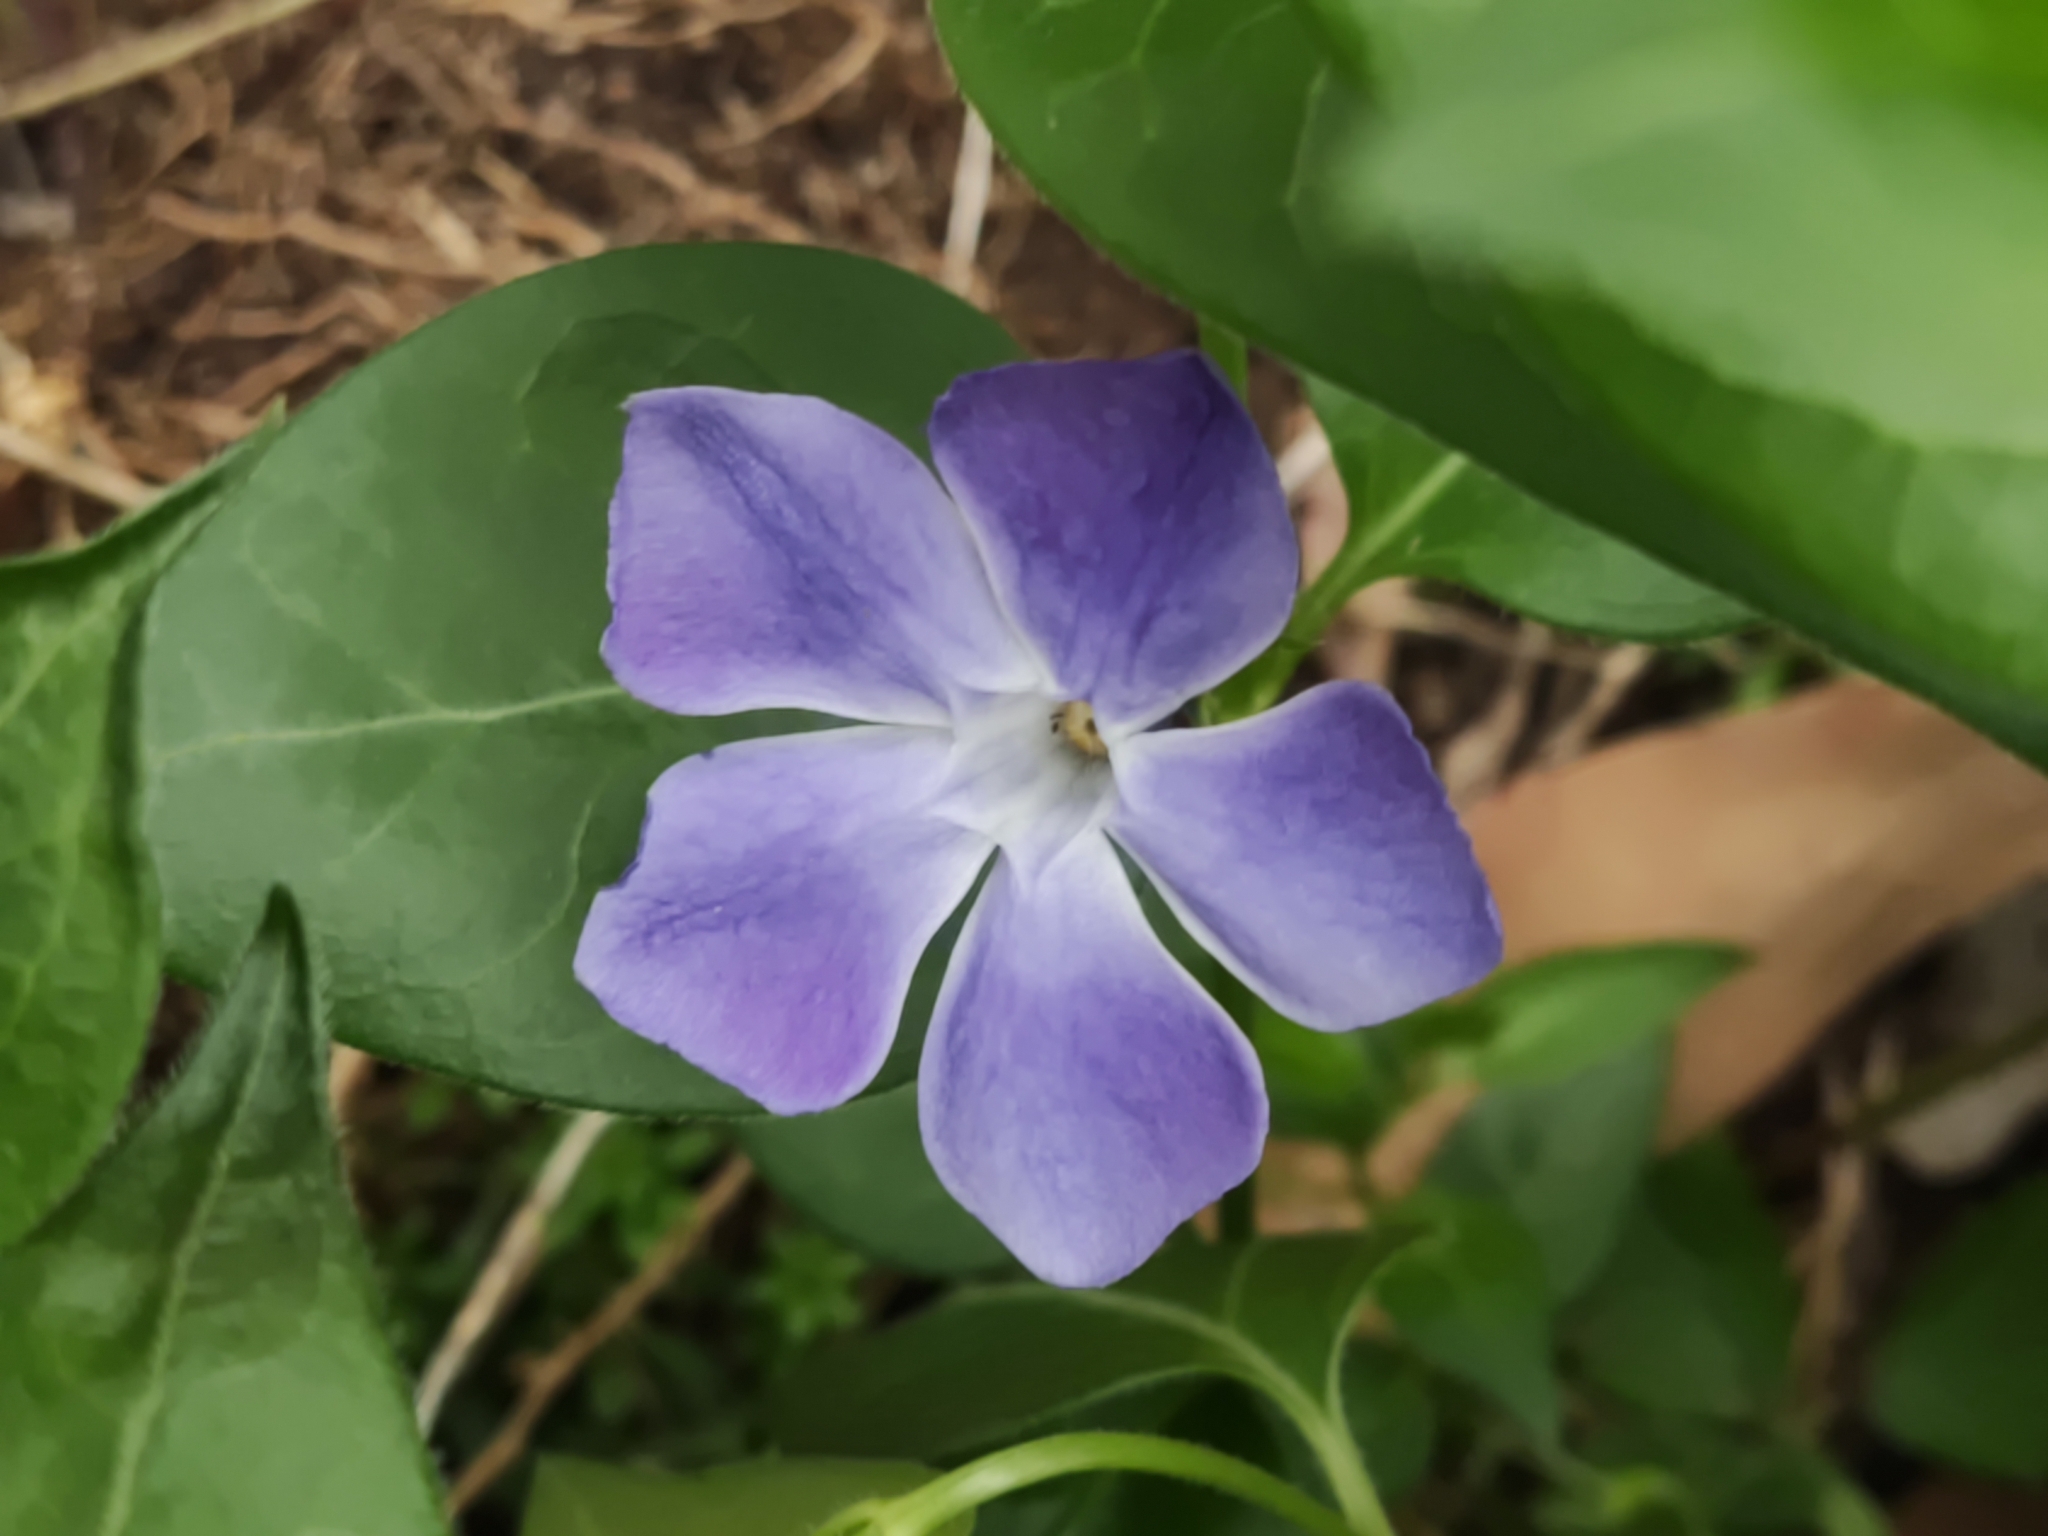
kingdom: Plantae
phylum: Tracheophyta
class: Magnoliopsida
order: Gentianales
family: Apocynaceae
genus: Vinca
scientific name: Vinca major
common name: Greater periwinkle
